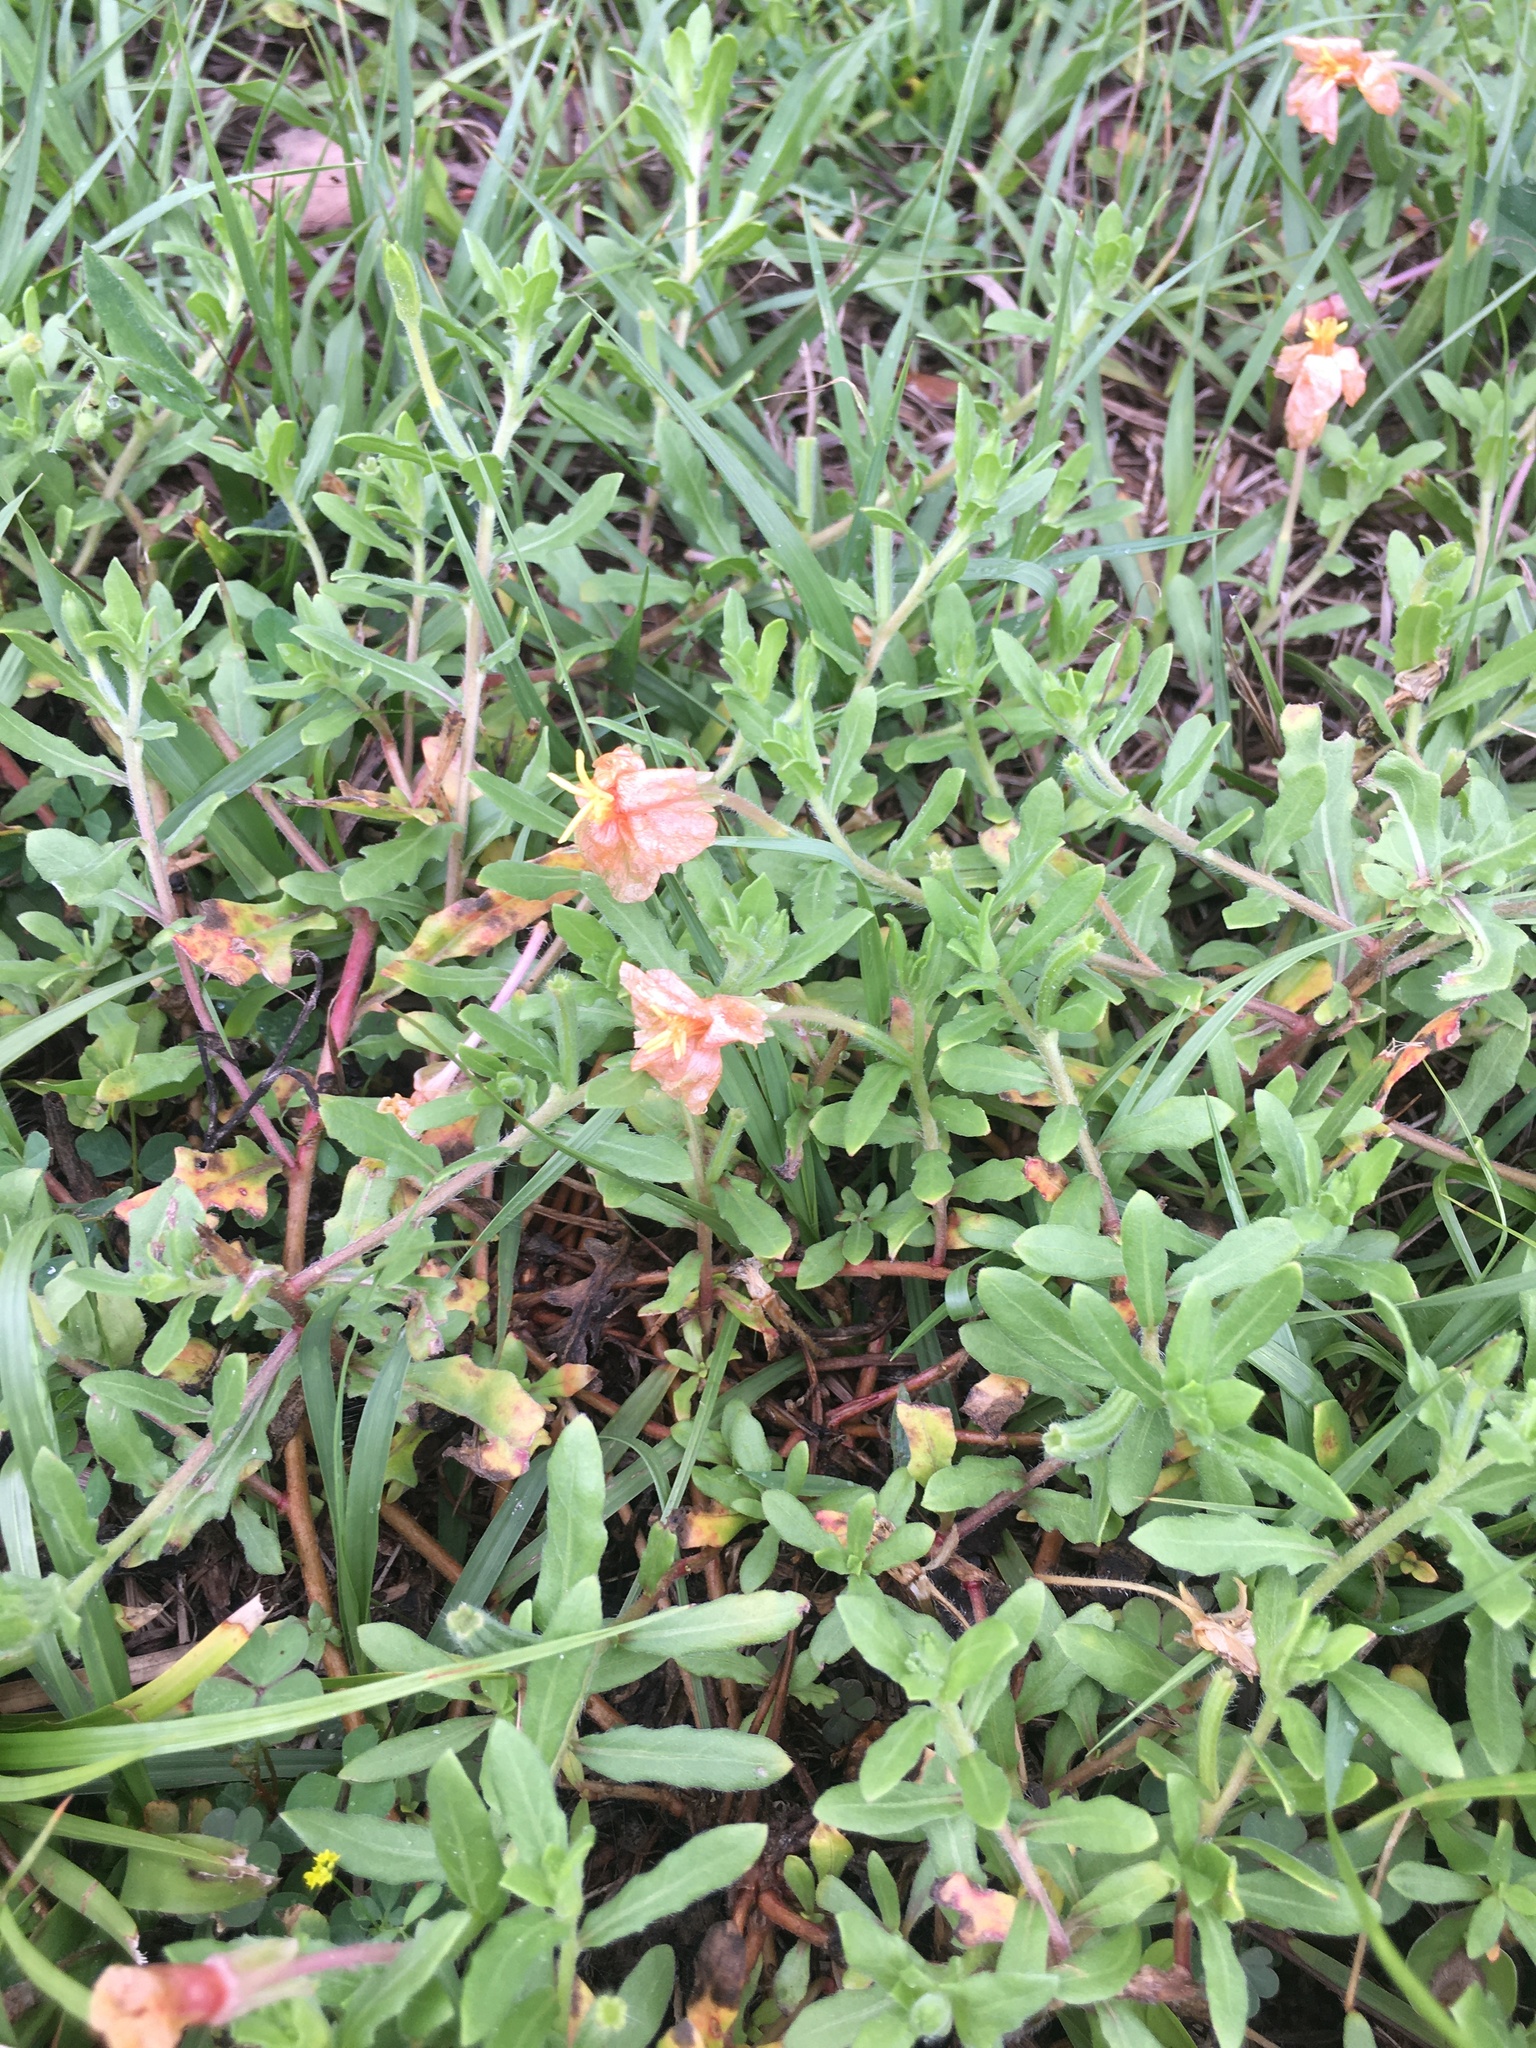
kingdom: Plantae
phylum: Tracheophyta
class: Magnoliopsida
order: Myrtales
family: Onagraceae
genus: Oenothera
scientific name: Oenothera laciniata
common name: Cut-leaved evening-primrose
